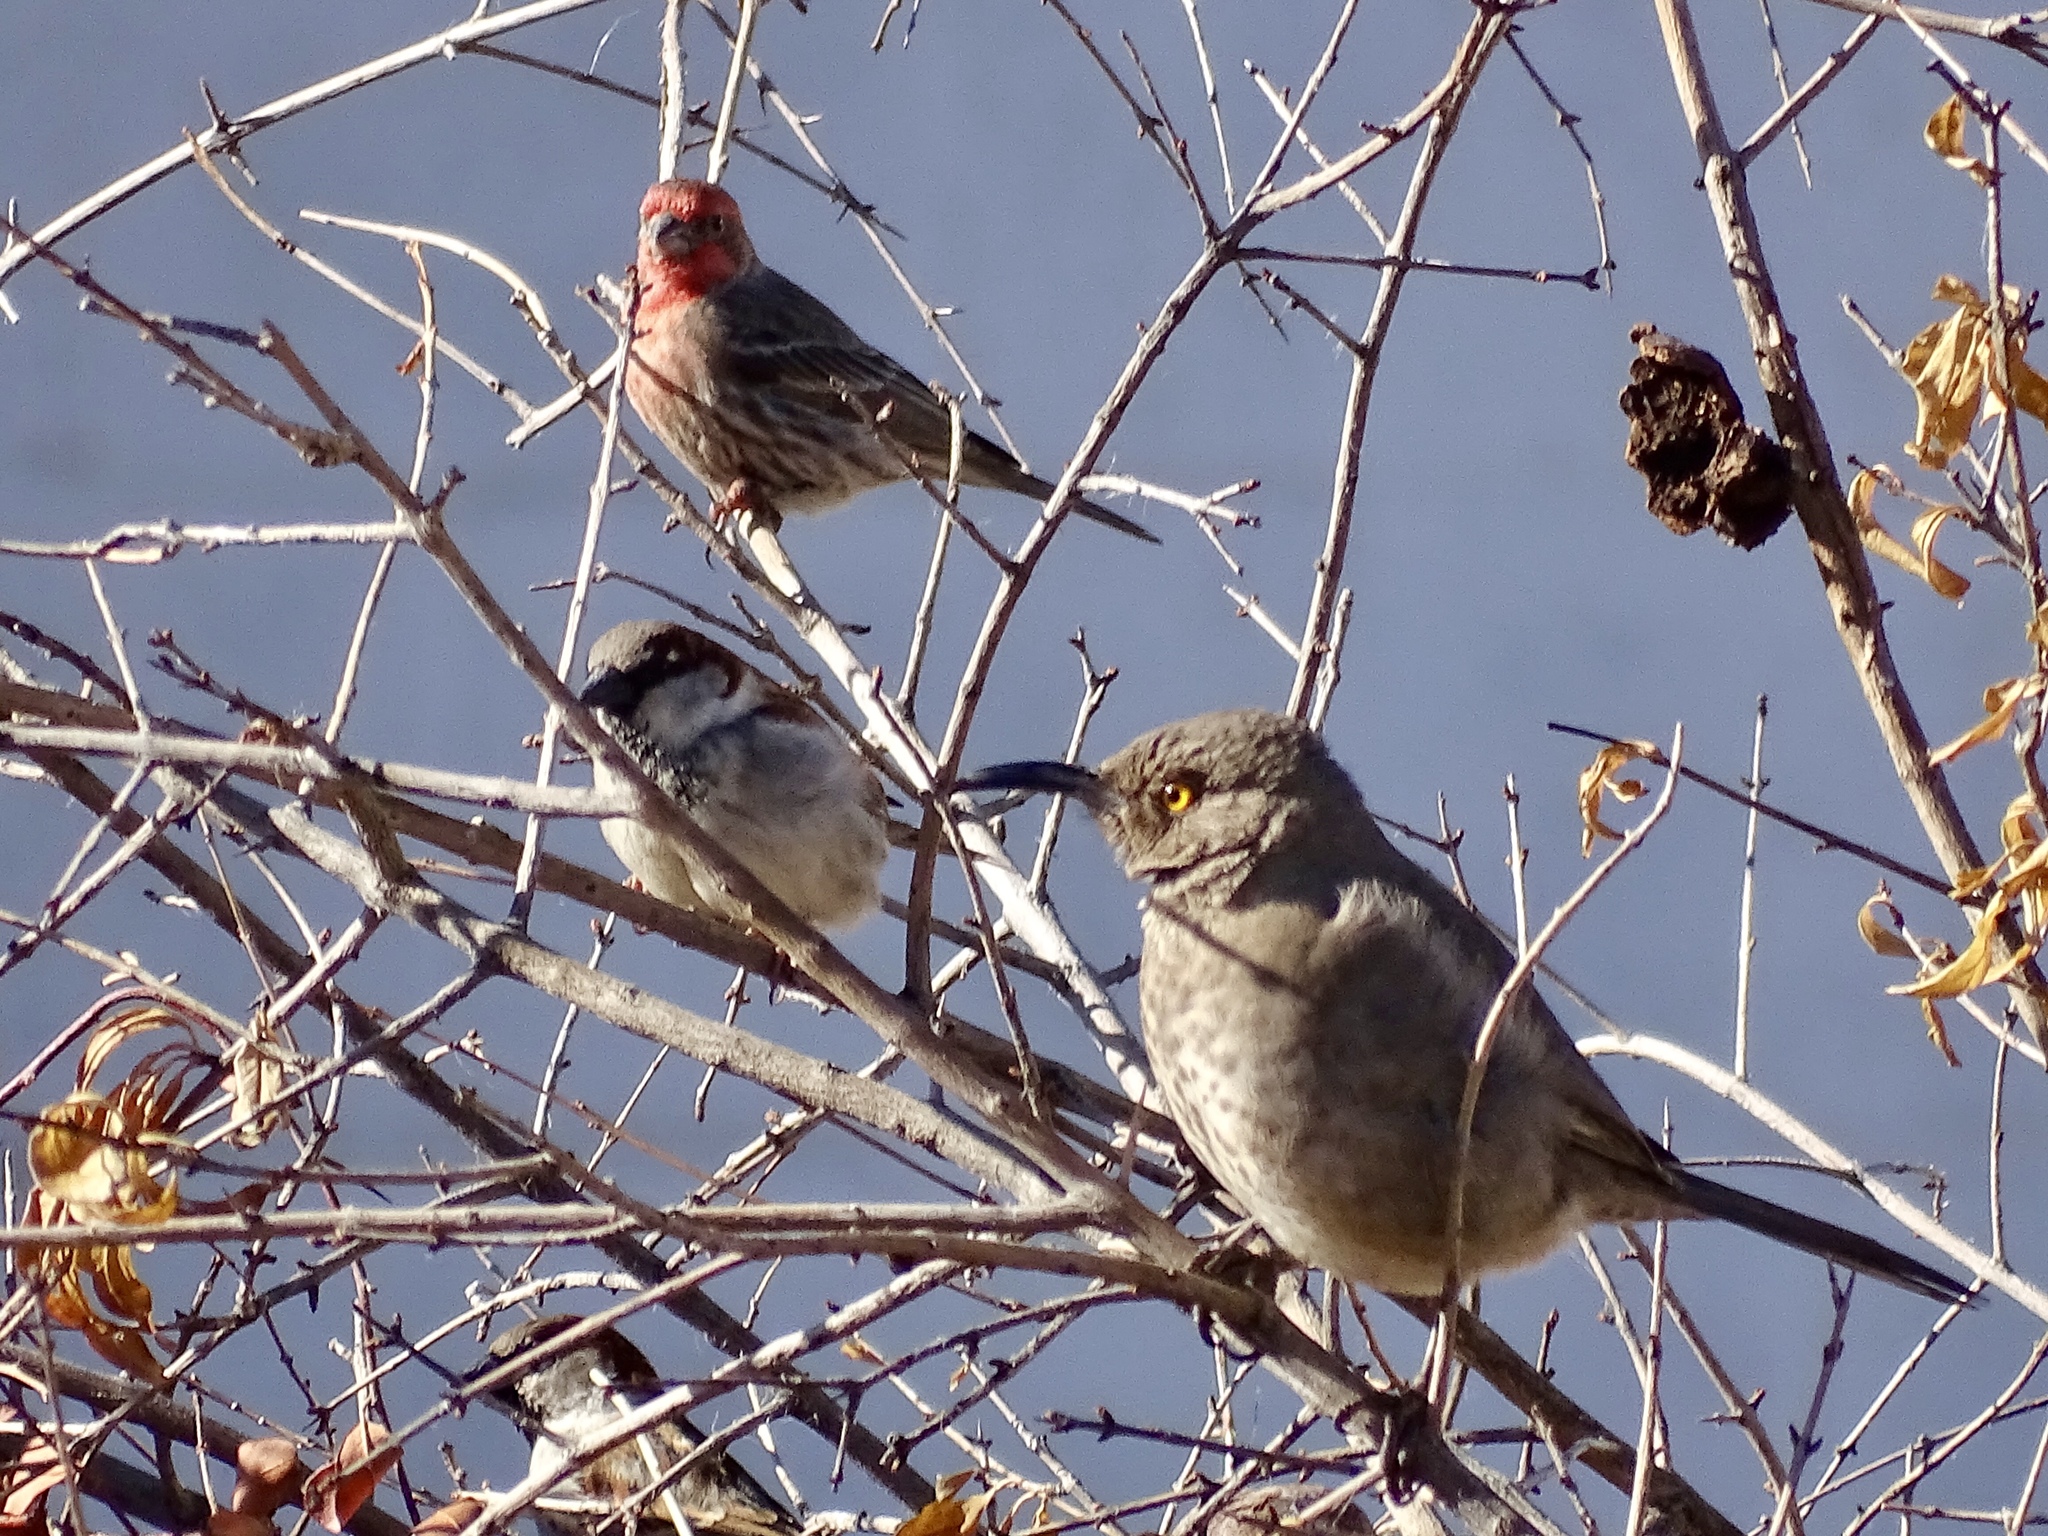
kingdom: Animalia
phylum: Chordata
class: Aves
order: Passeriformes
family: Passeridae
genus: Passer
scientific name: Passer domesticus
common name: House sparrow
